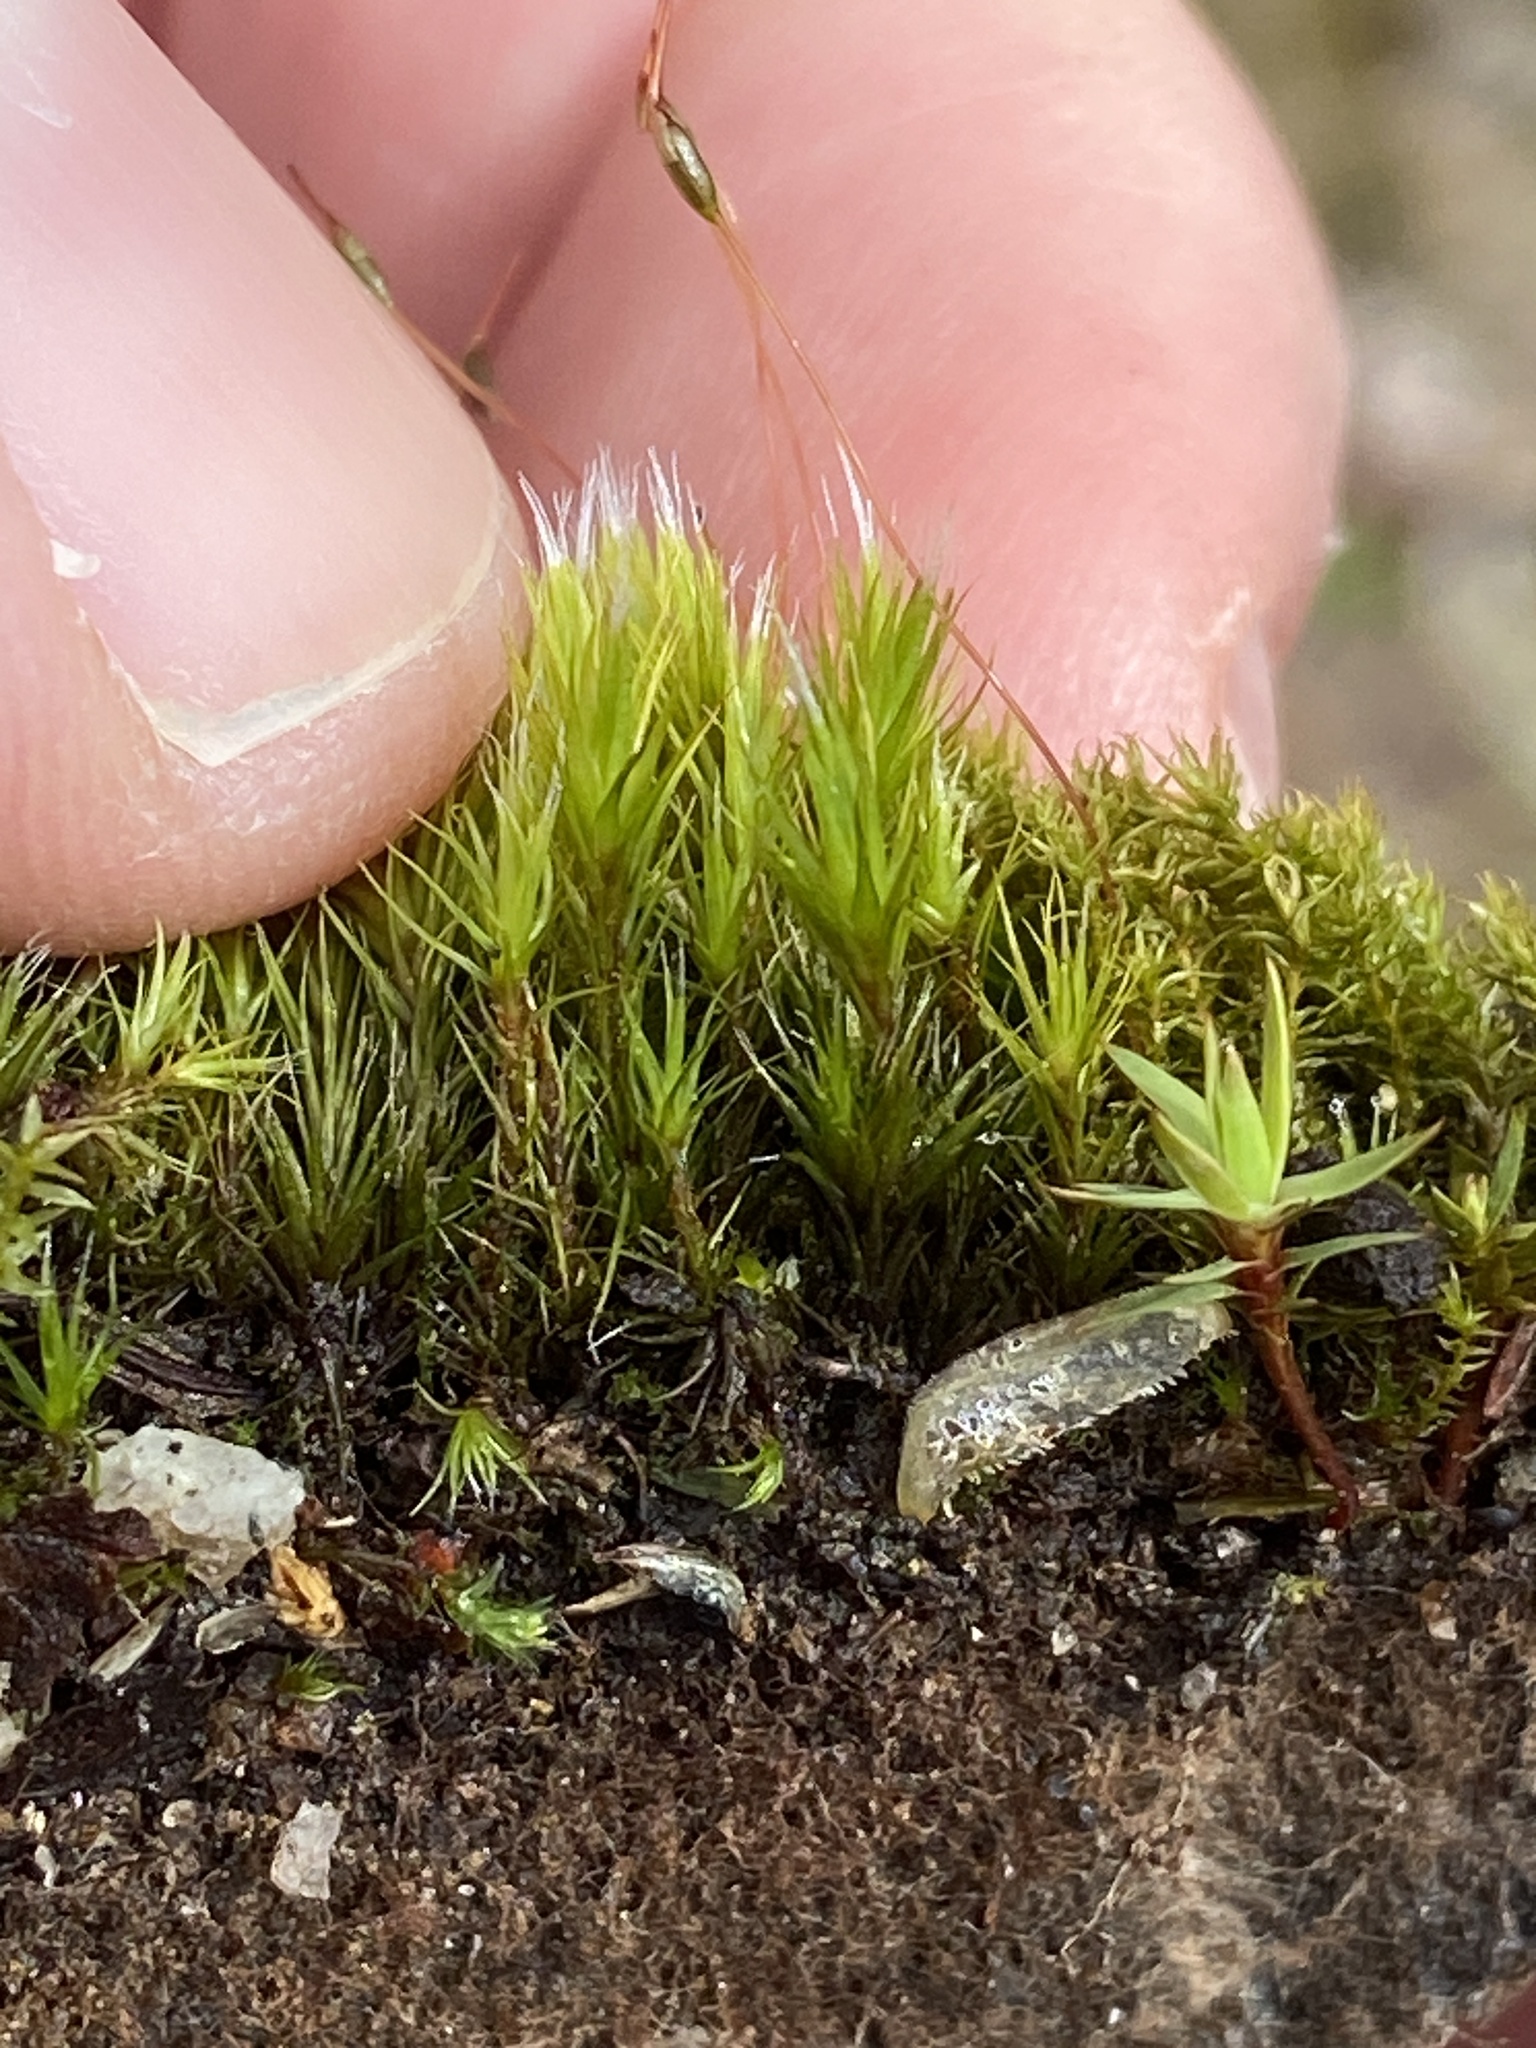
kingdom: Plantae
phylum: Bryophyta
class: Bryopsida
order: Dicranales
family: Leucobryaceae
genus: Campylopus
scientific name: Campylopus introflexus
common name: Heath star moss
